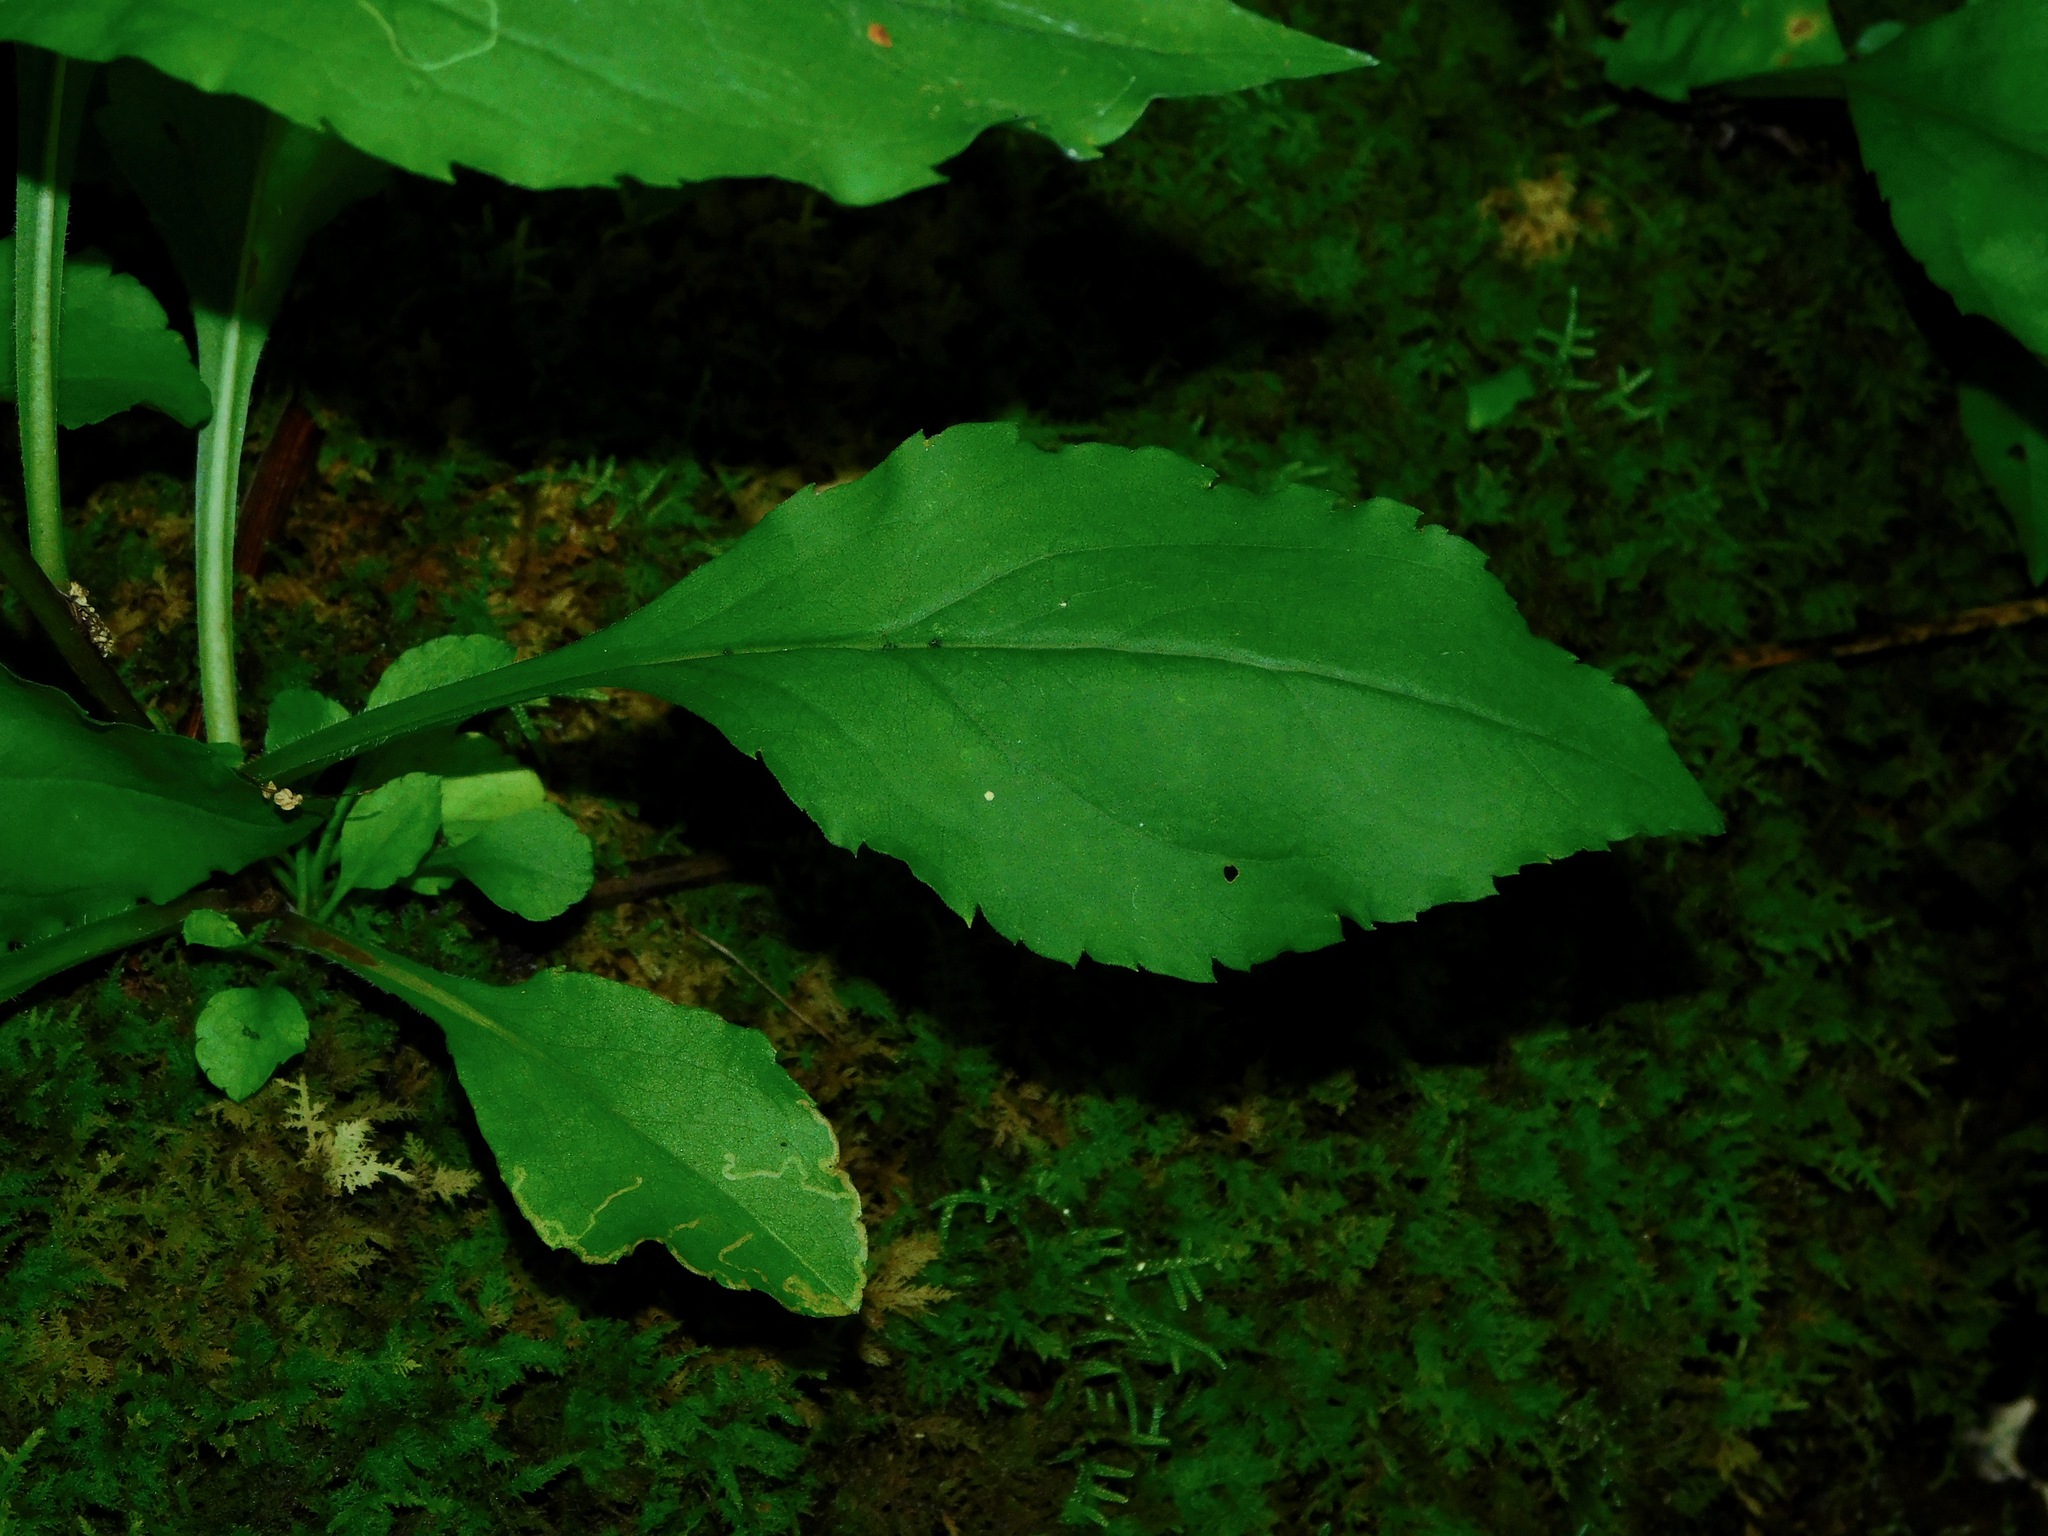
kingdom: Plantae
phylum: Tracheophyta
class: Magnoliopsida
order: Asterales
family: Asteraceae
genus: Solidago
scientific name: Solidago flexicaulis
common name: Zig-zag goldenrod
